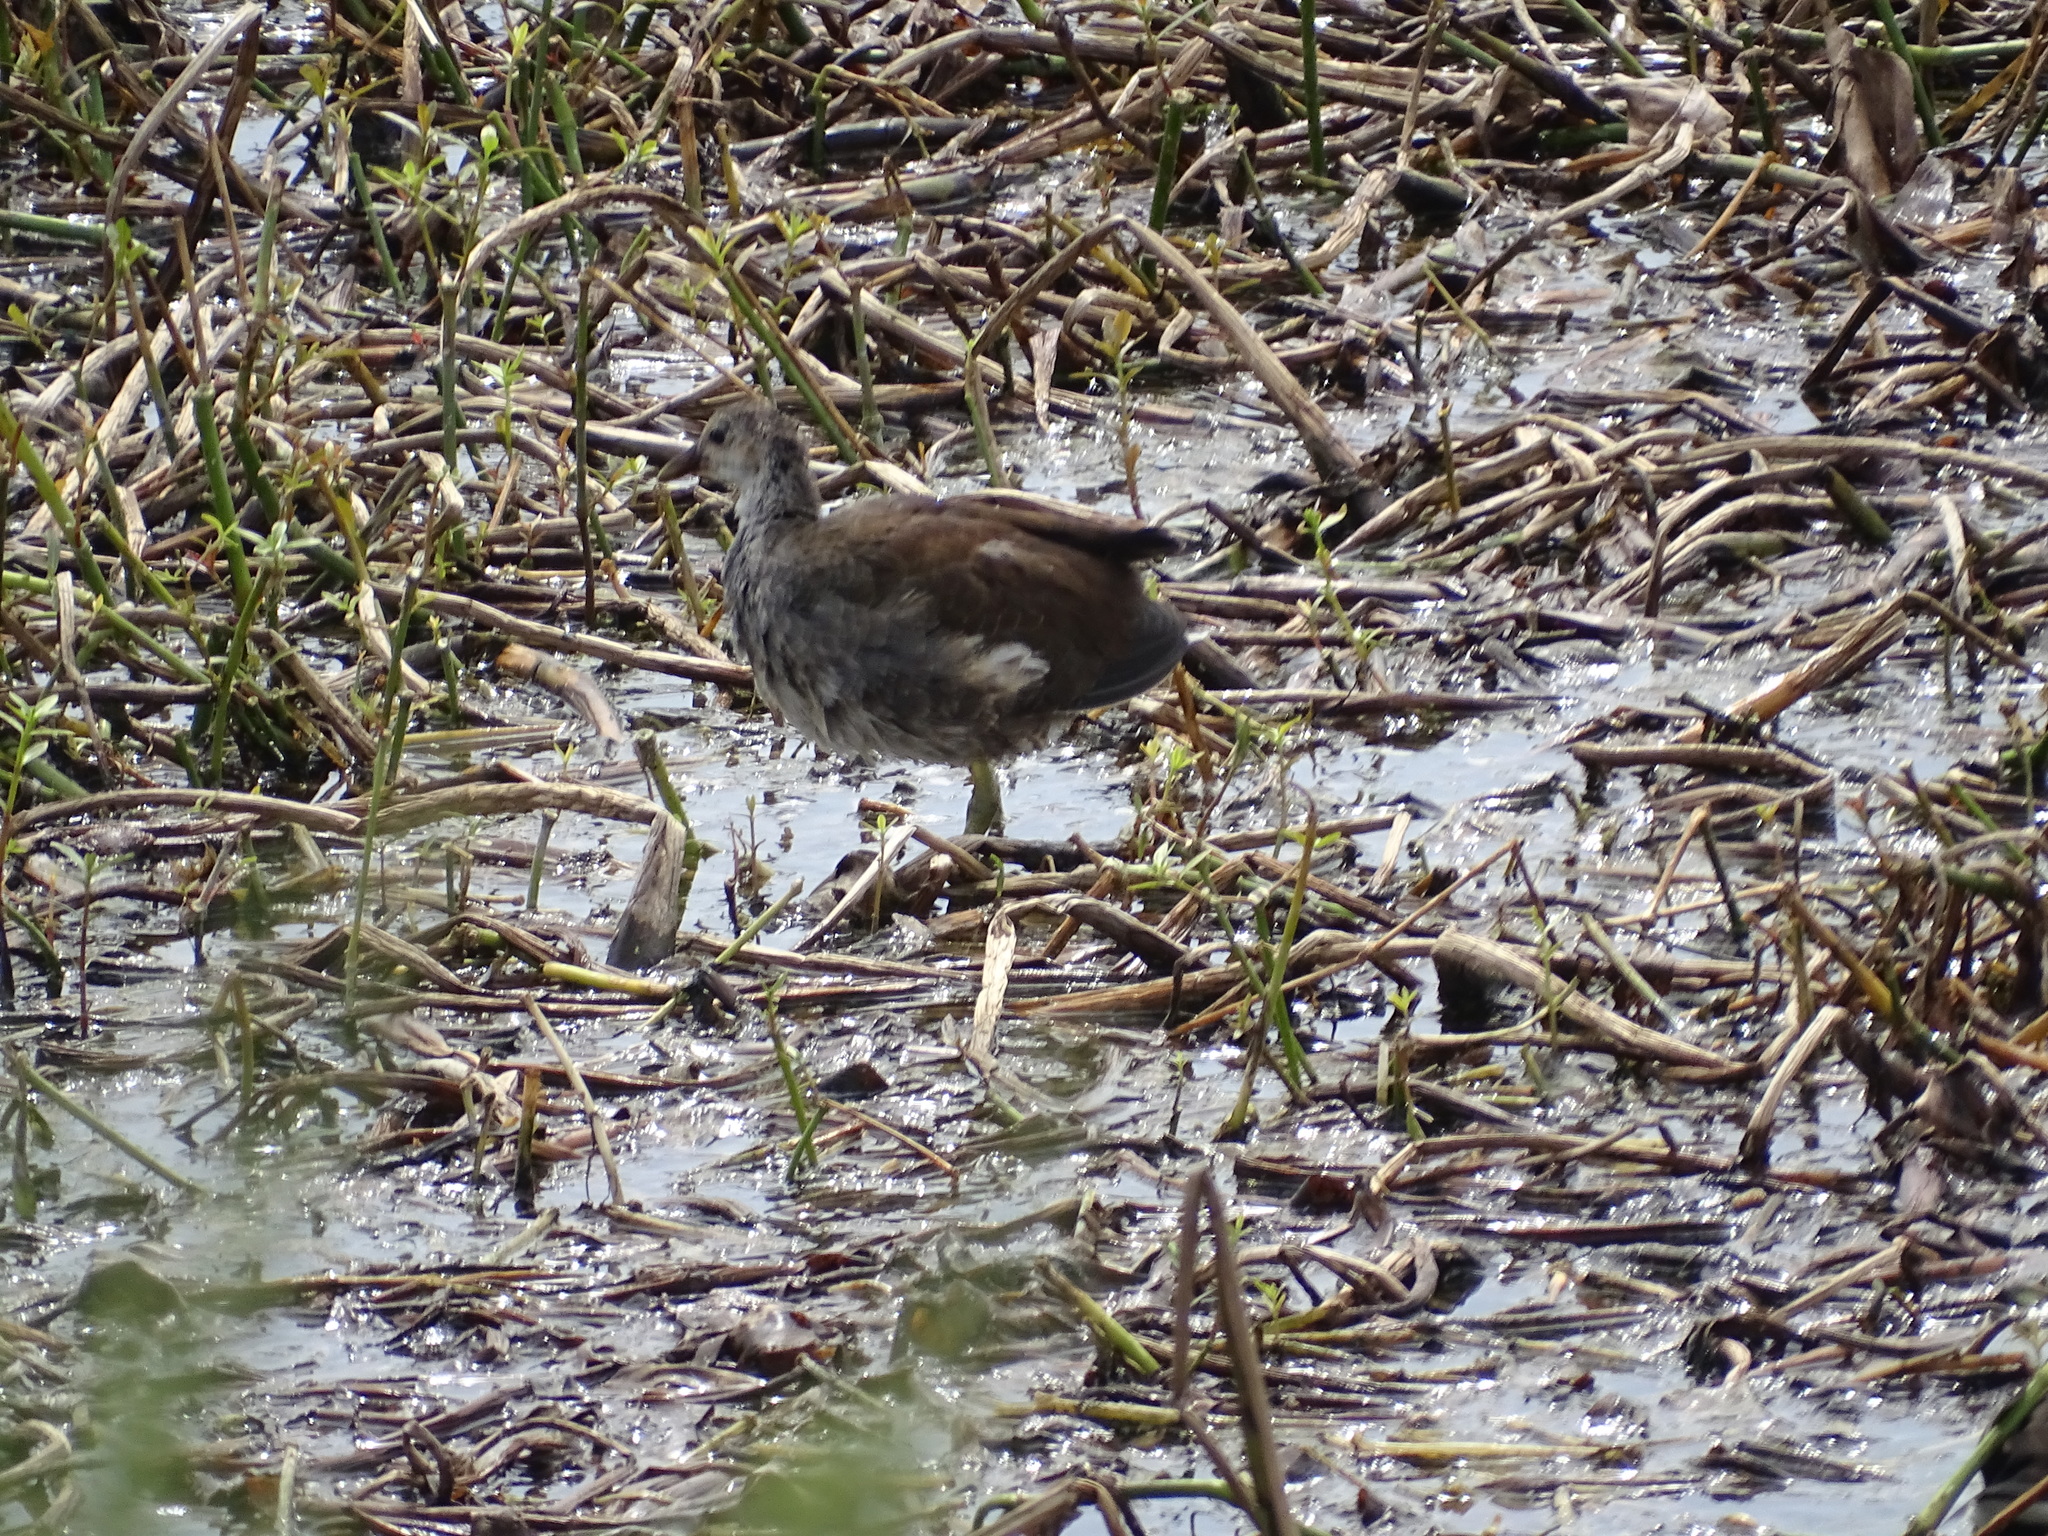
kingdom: Animalia
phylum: Chordata
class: Aves
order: Gruiformes
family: Rallidae
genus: Gallinula
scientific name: Gallinula chloropus
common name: Common moorhen
